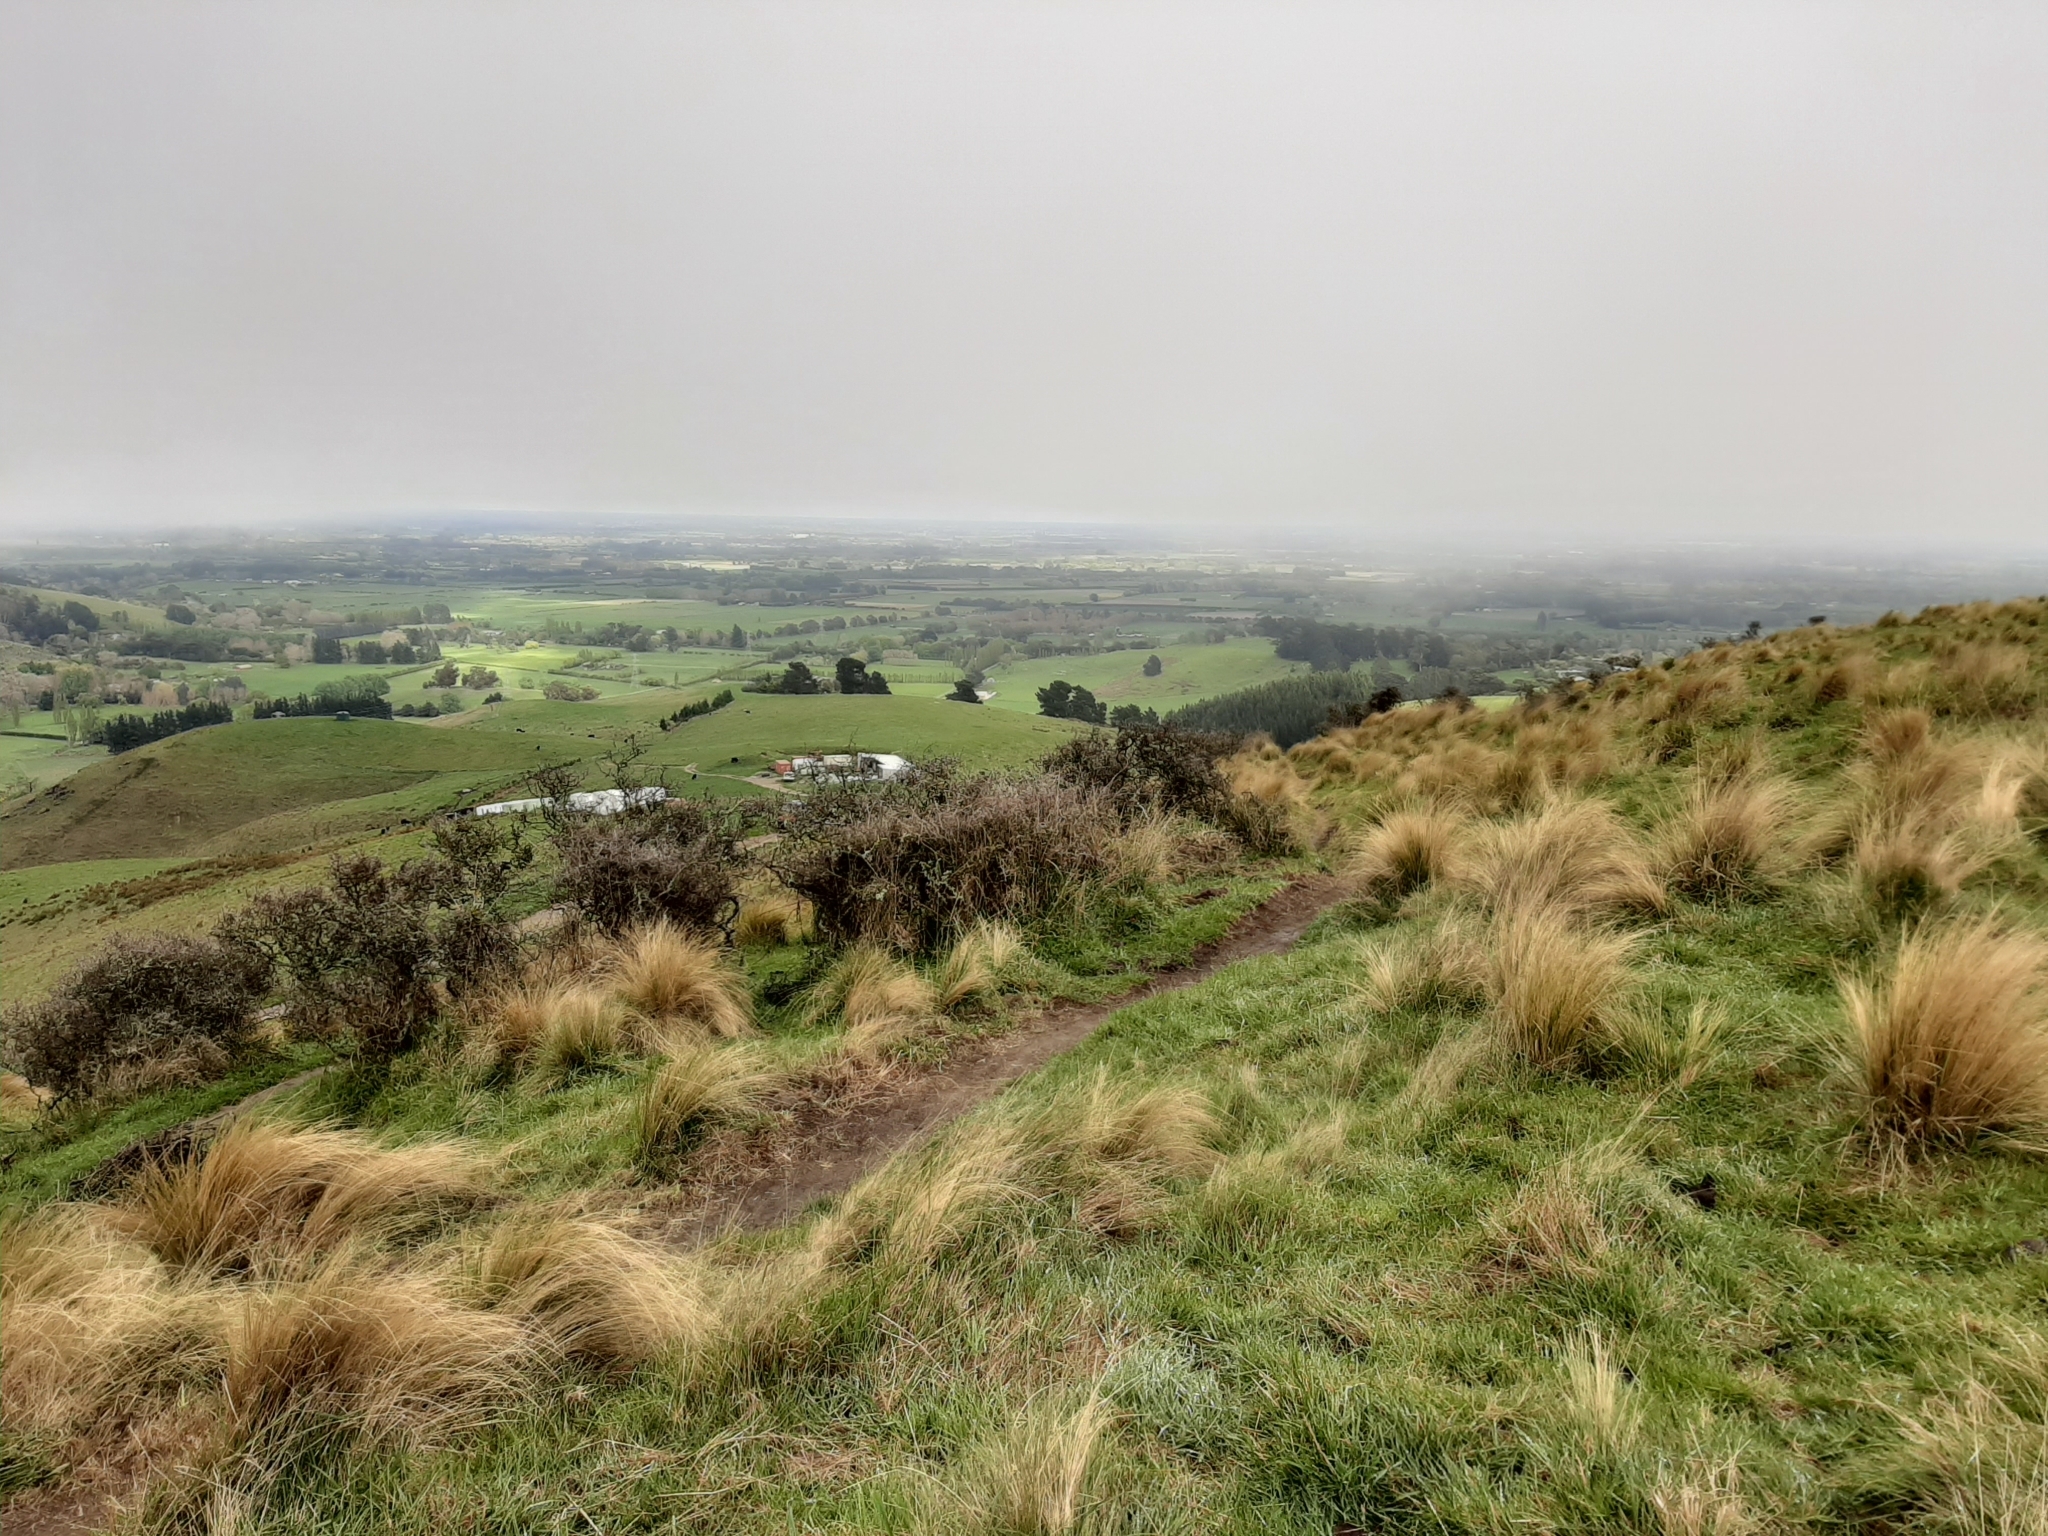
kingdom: Plantae
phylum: Tracheophyta
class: Magnoliopsida
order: Rosales
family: Rhamnaceae
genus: Discaria
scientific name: Discaria toumatou
